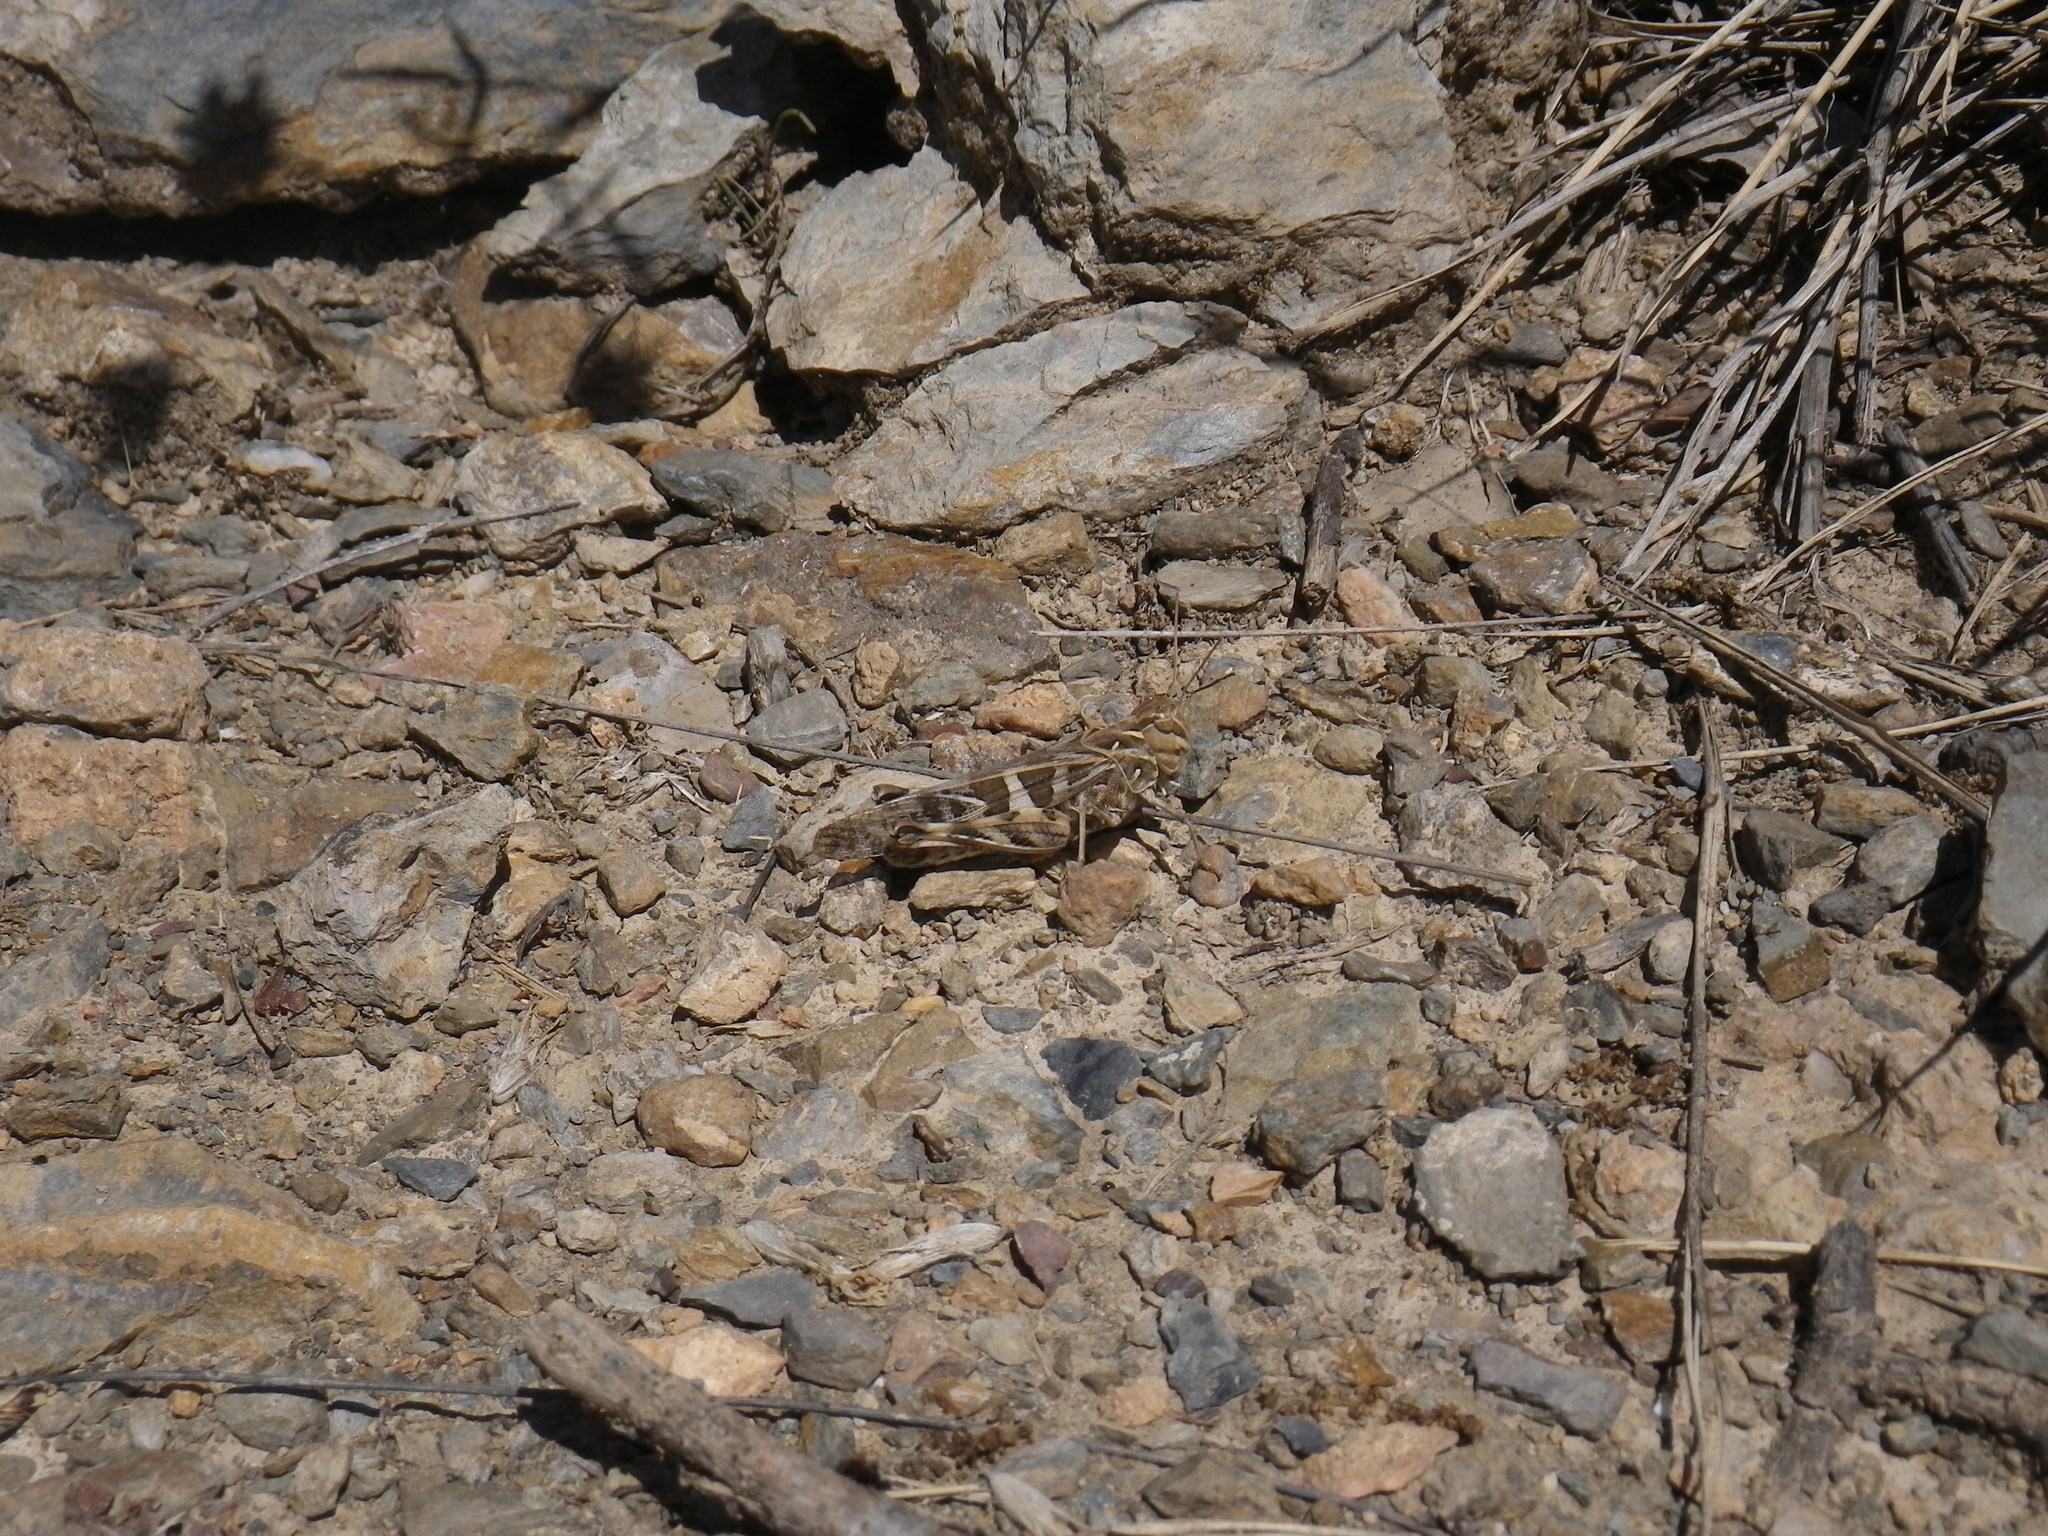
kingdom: Animalia
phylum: Arthropoda
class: Insecta
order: Orthoptera
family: Acrididae
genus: Oedaleus
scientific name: Oedaleus decorus
